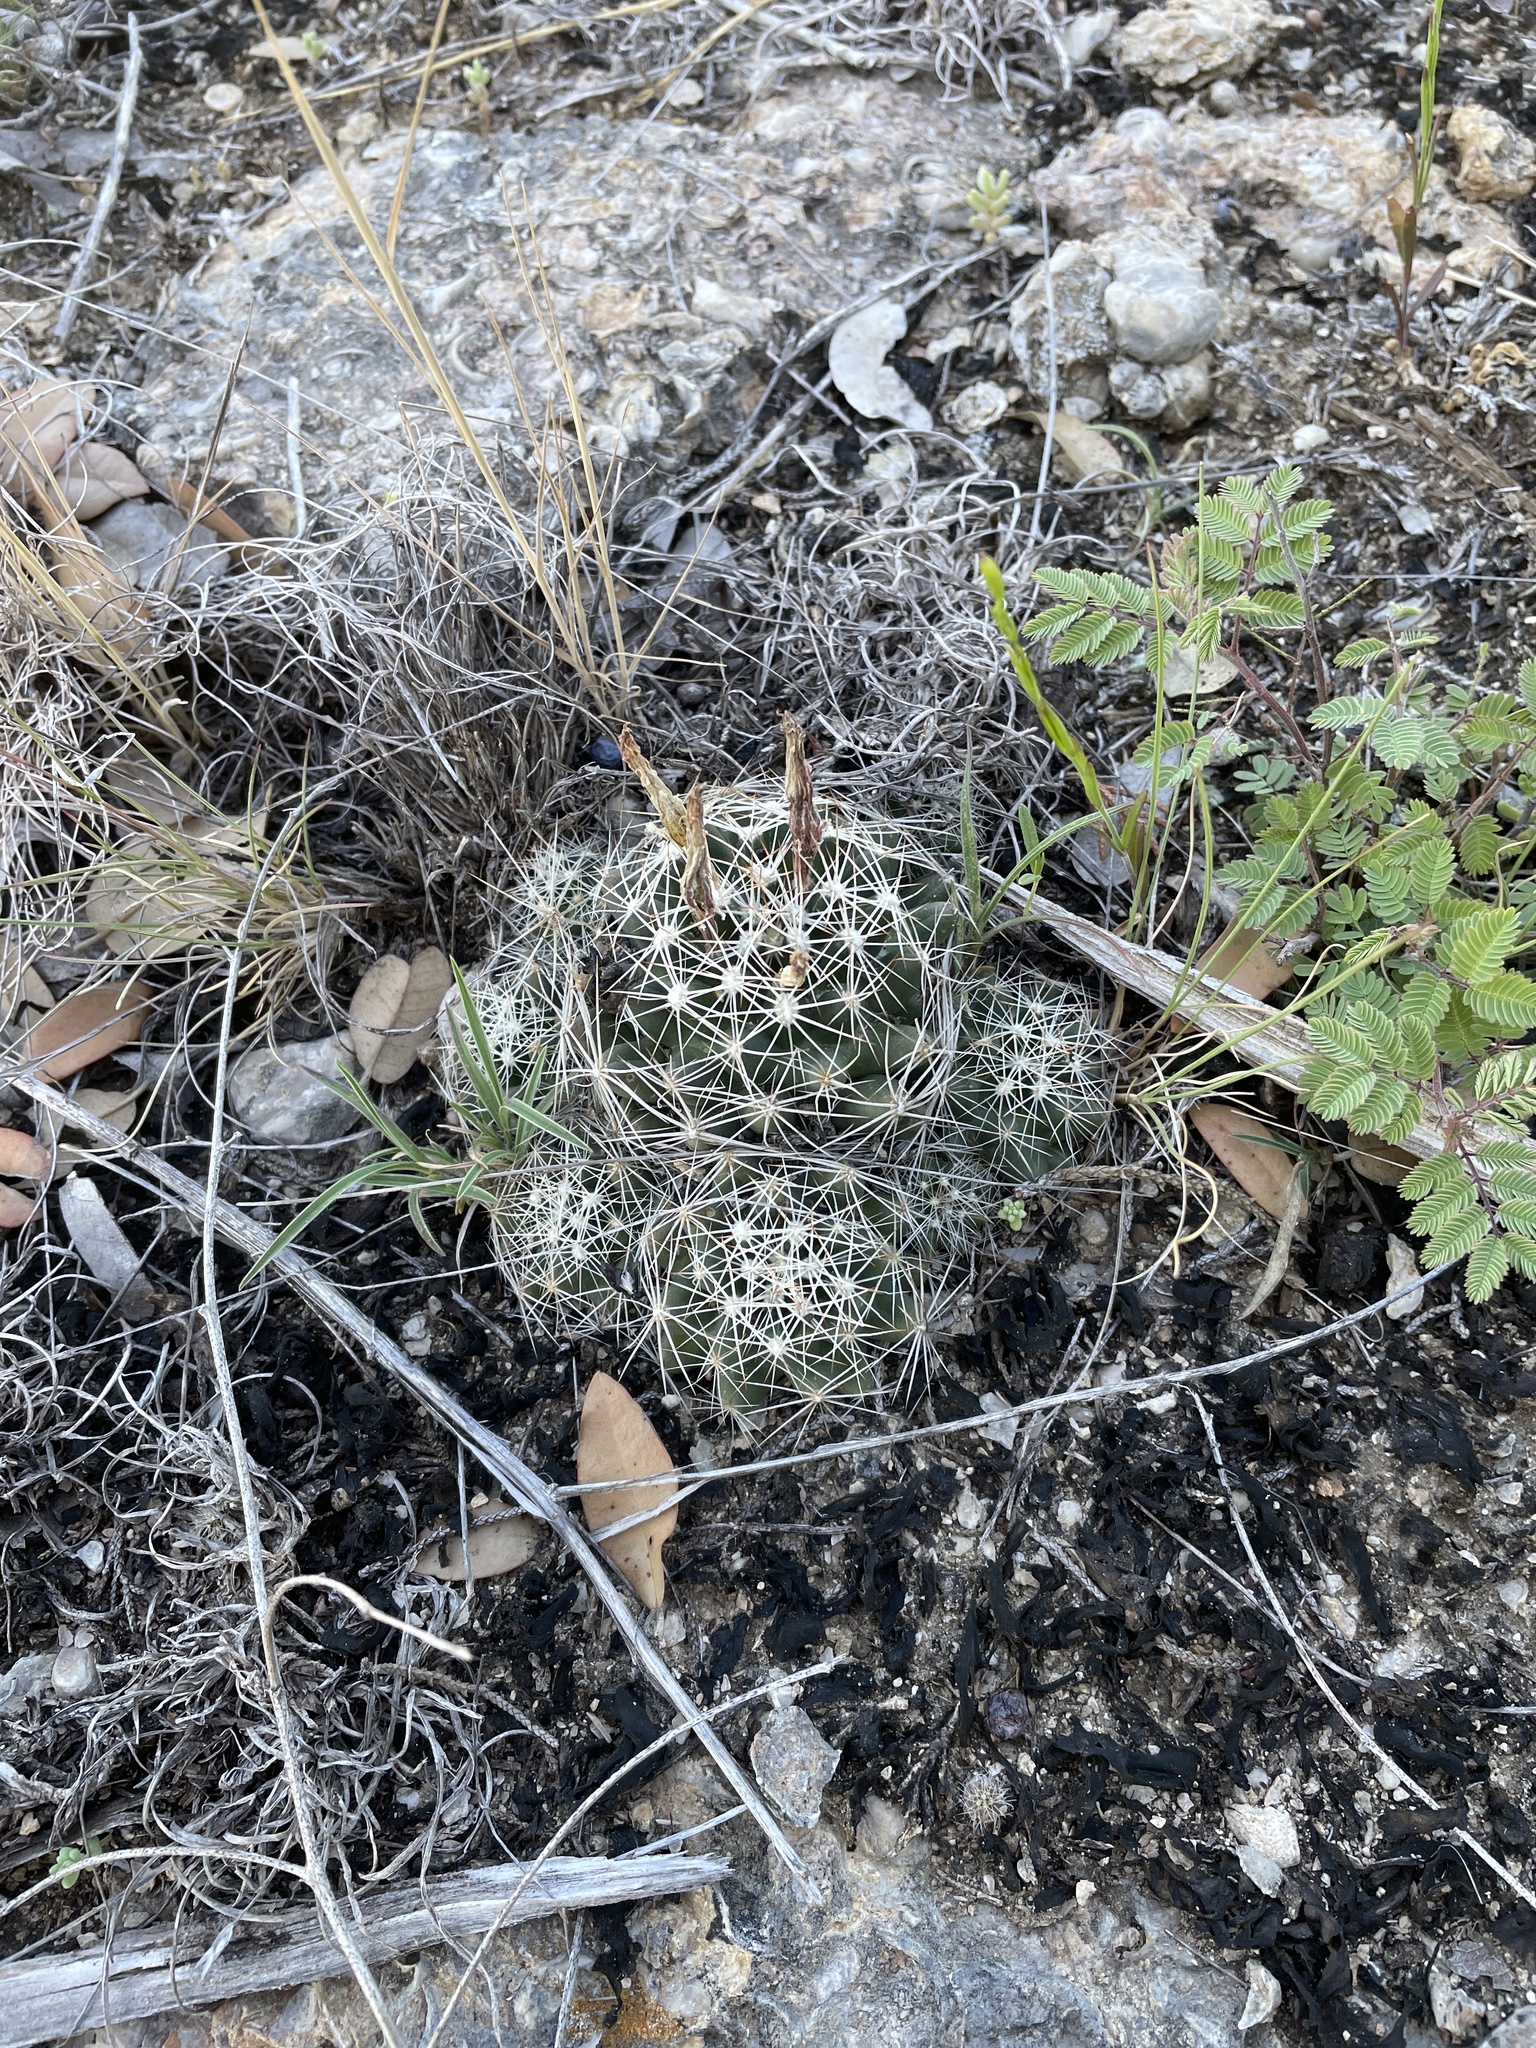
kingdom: Plantae
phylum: Tracheophyta
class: Magnoliopsida
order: Caryophyllales
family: Cactaceae
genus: Pelecyphora
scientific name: Pelecyphora missouriensis
